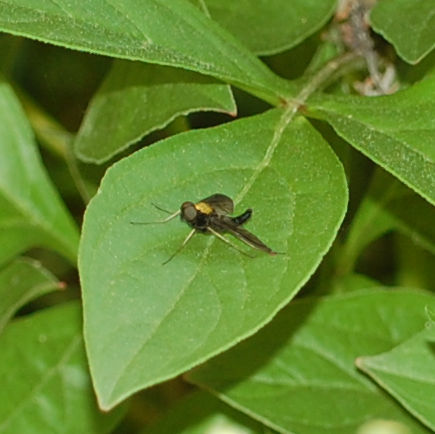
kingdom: Animalia
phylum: Arthropoda
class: Insecta
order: Diptera
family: Rhagionidae
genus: Chrysopilus
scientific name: Chrysopilus thoracicus
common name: Golden-backed snipe fly
